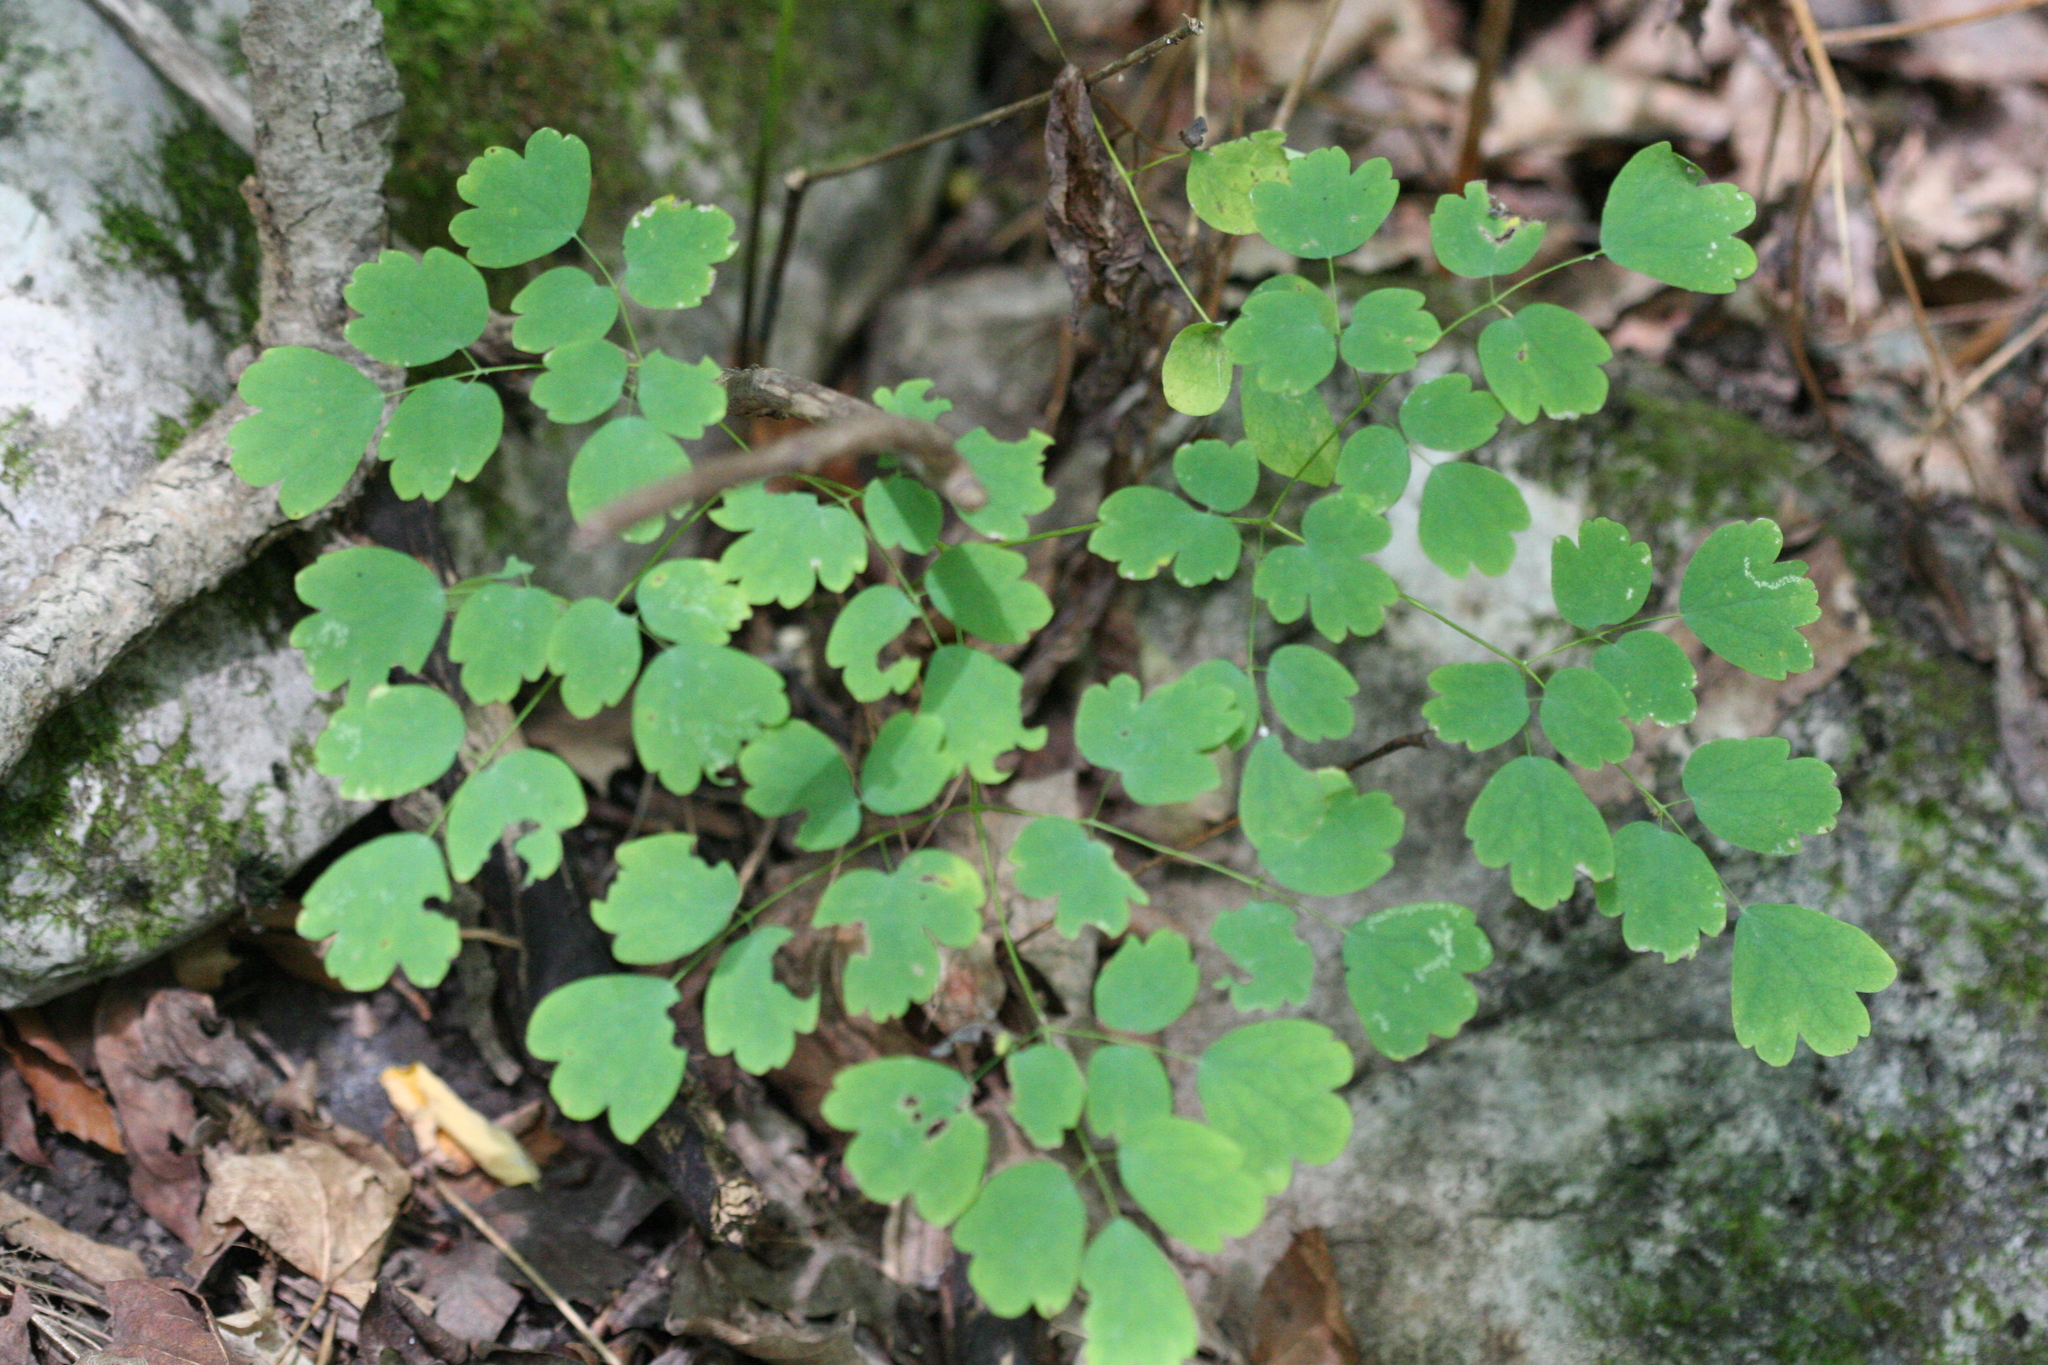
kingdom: Plantae
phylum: Tracheophyta
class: Magnoliopsida
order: Ranunculales
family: Ranunculaceae
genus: Thalictrum
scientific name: Thalictrum dioicum
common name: Early meadow-rue
